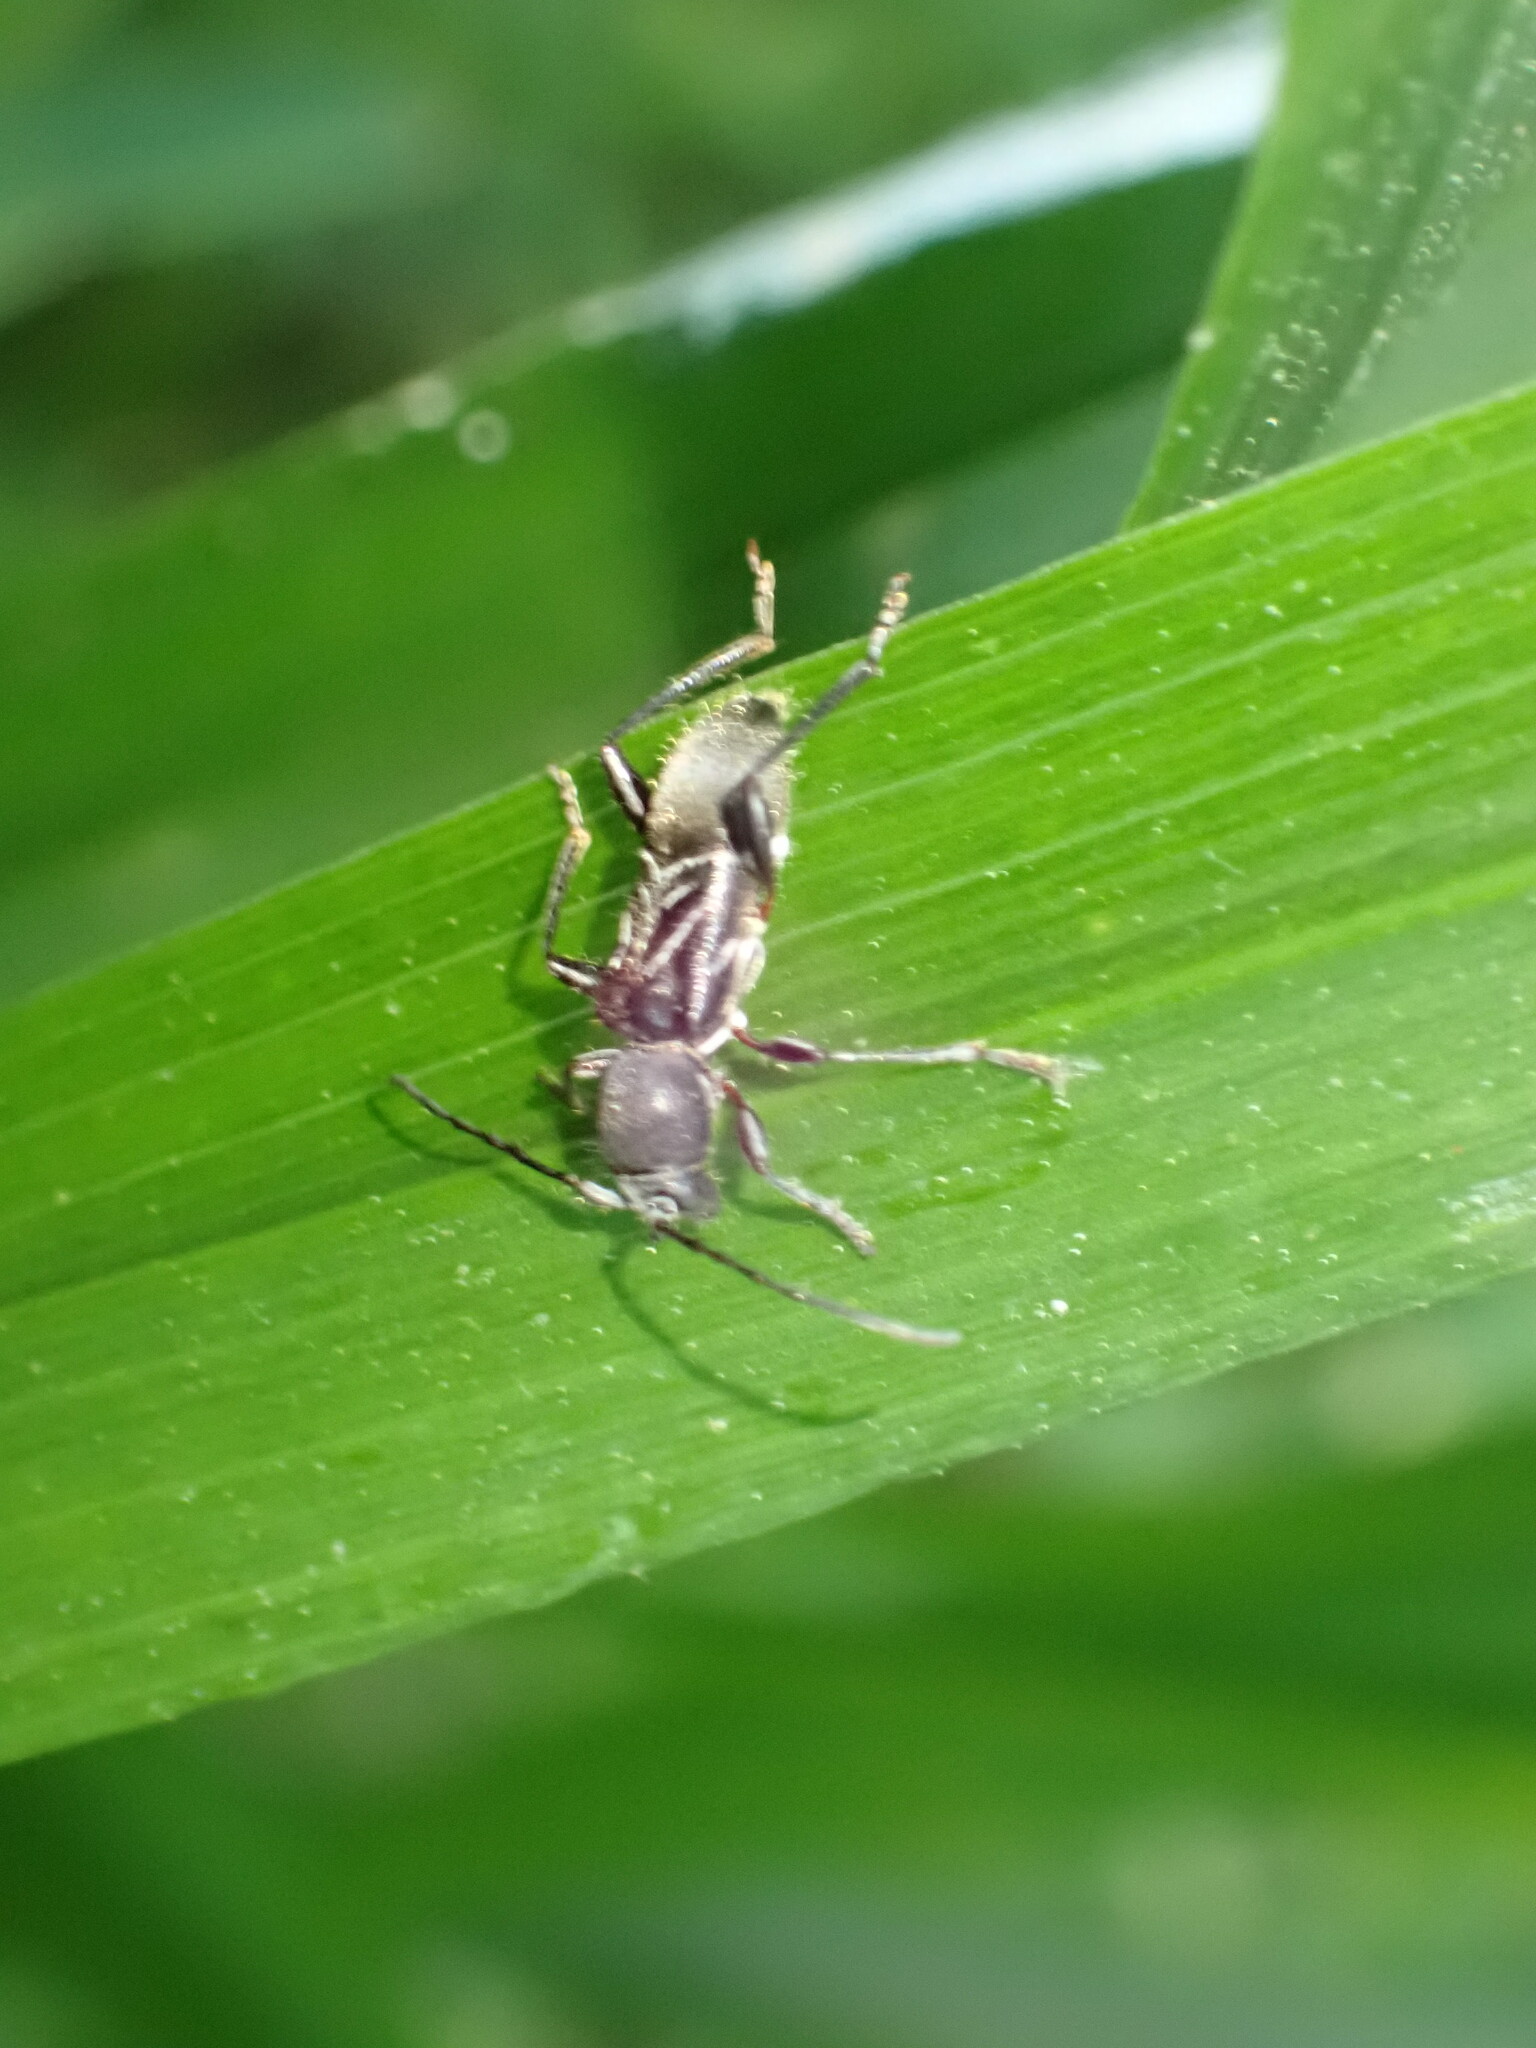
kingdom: Animalia
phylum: Arthropoda
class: Insecta
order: Coleoptera
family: Cerambycidae
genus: Cyrtophorus
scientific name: Cyrtophorus verrucosus
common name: Ant-like longhorn beetle
